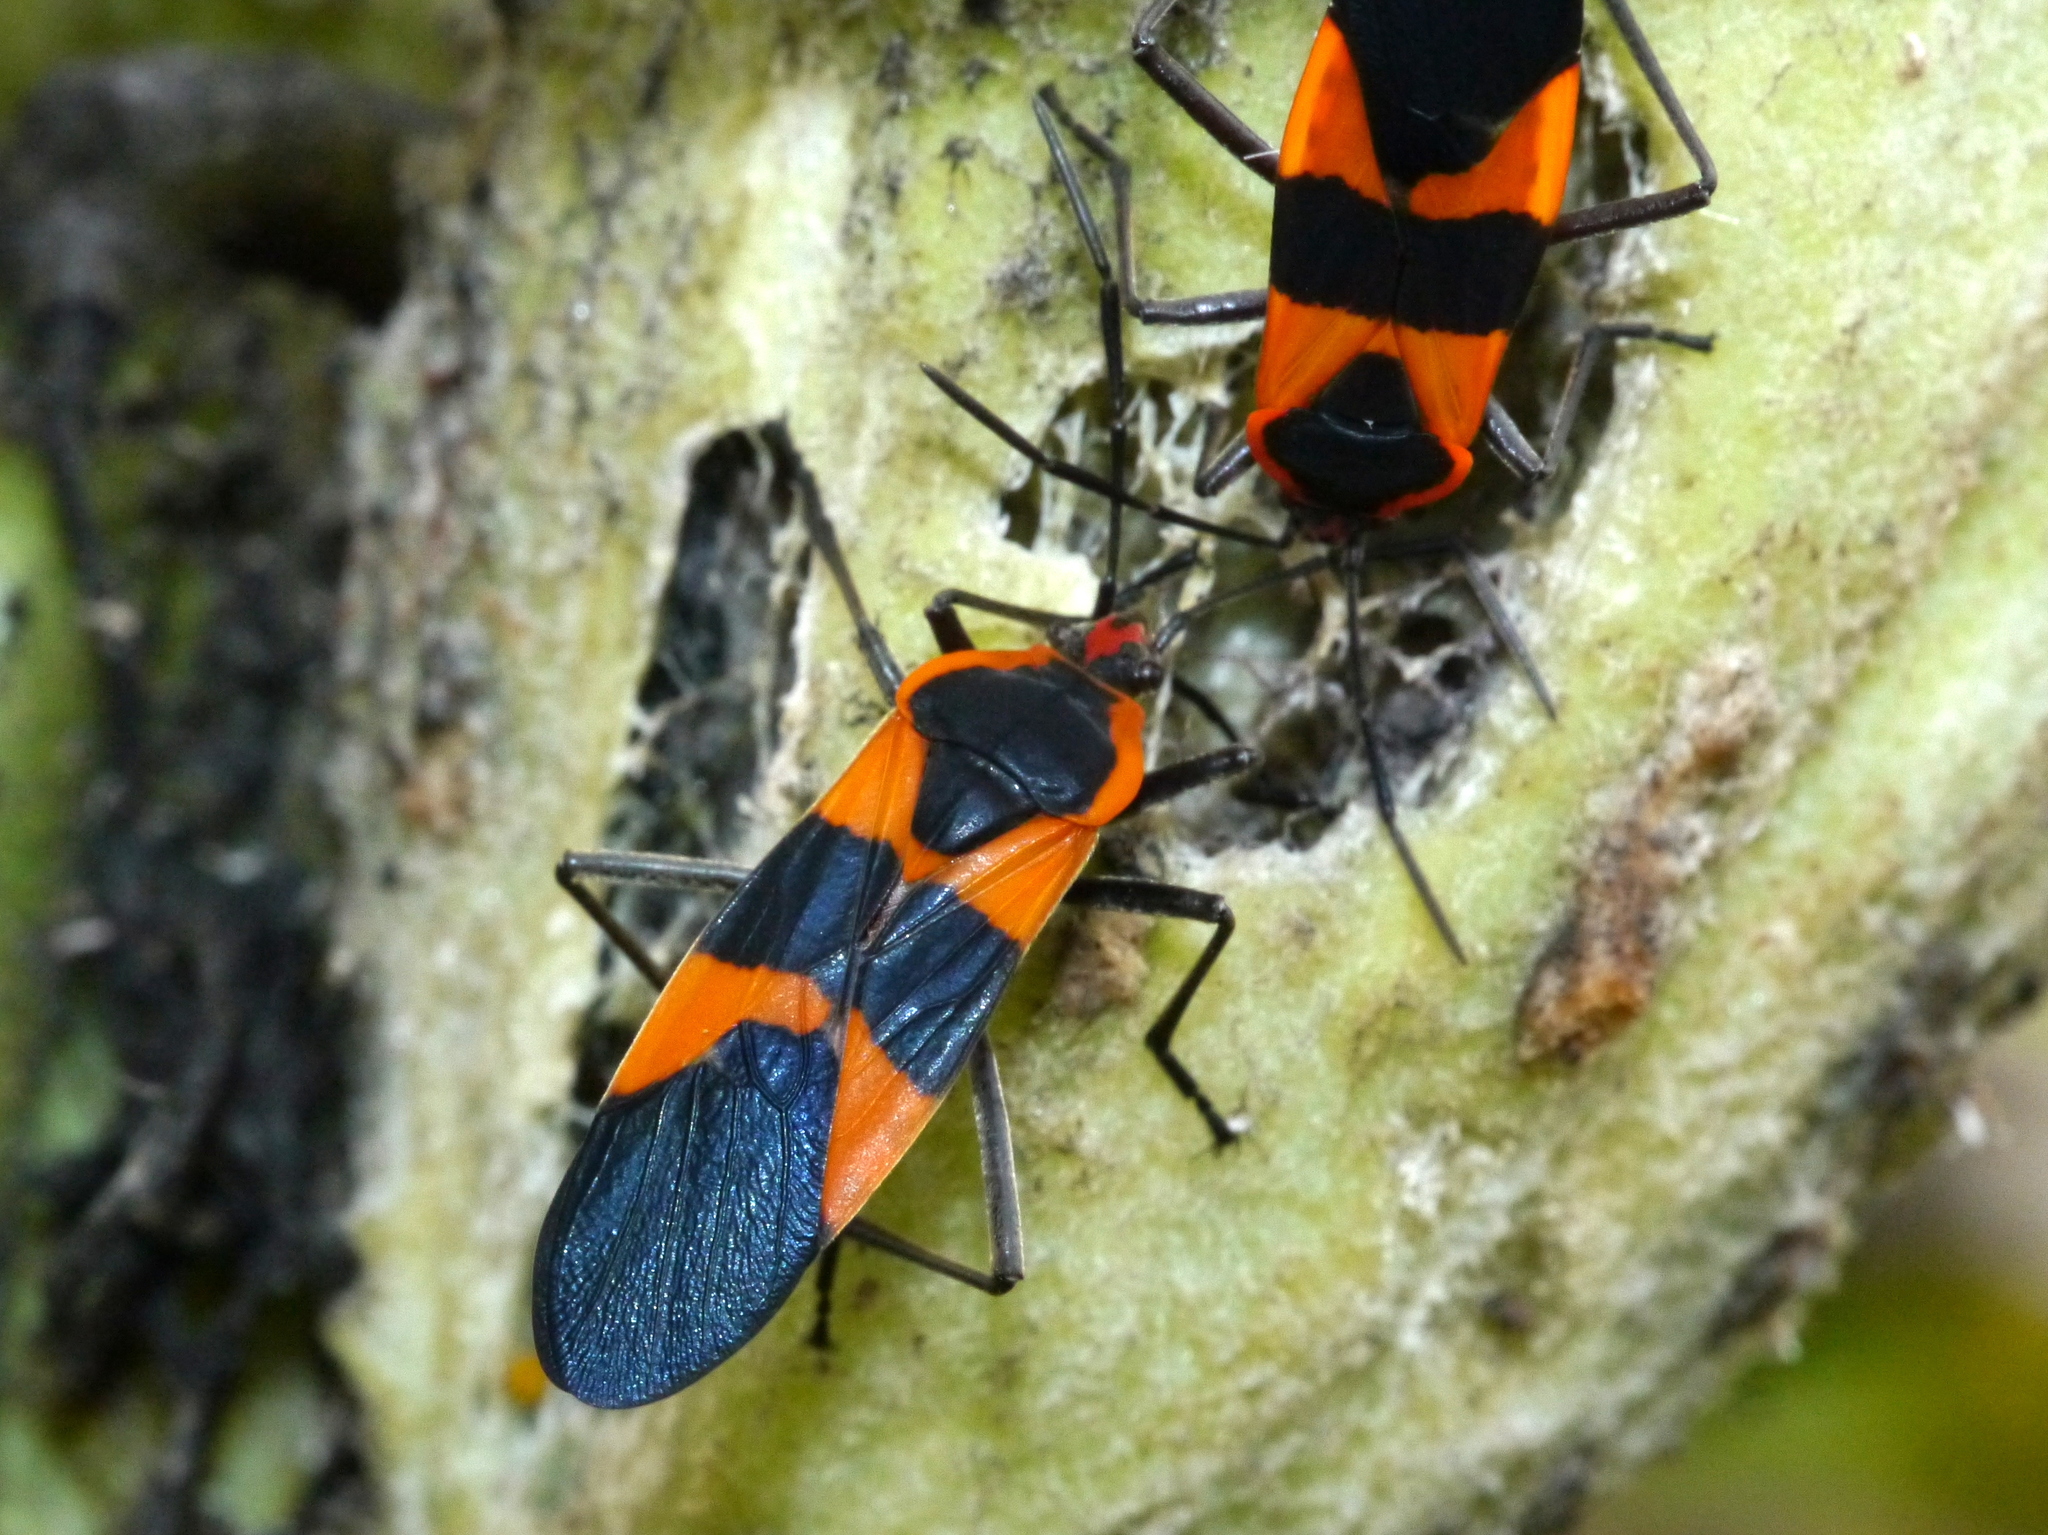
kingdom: Animalia
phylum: Arthropoda
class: Insecta
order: Hemiptera
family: Lygaeidae
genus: Oncopeltus
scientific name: Oncopeltus fasciatus
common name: Large milkweed bug
